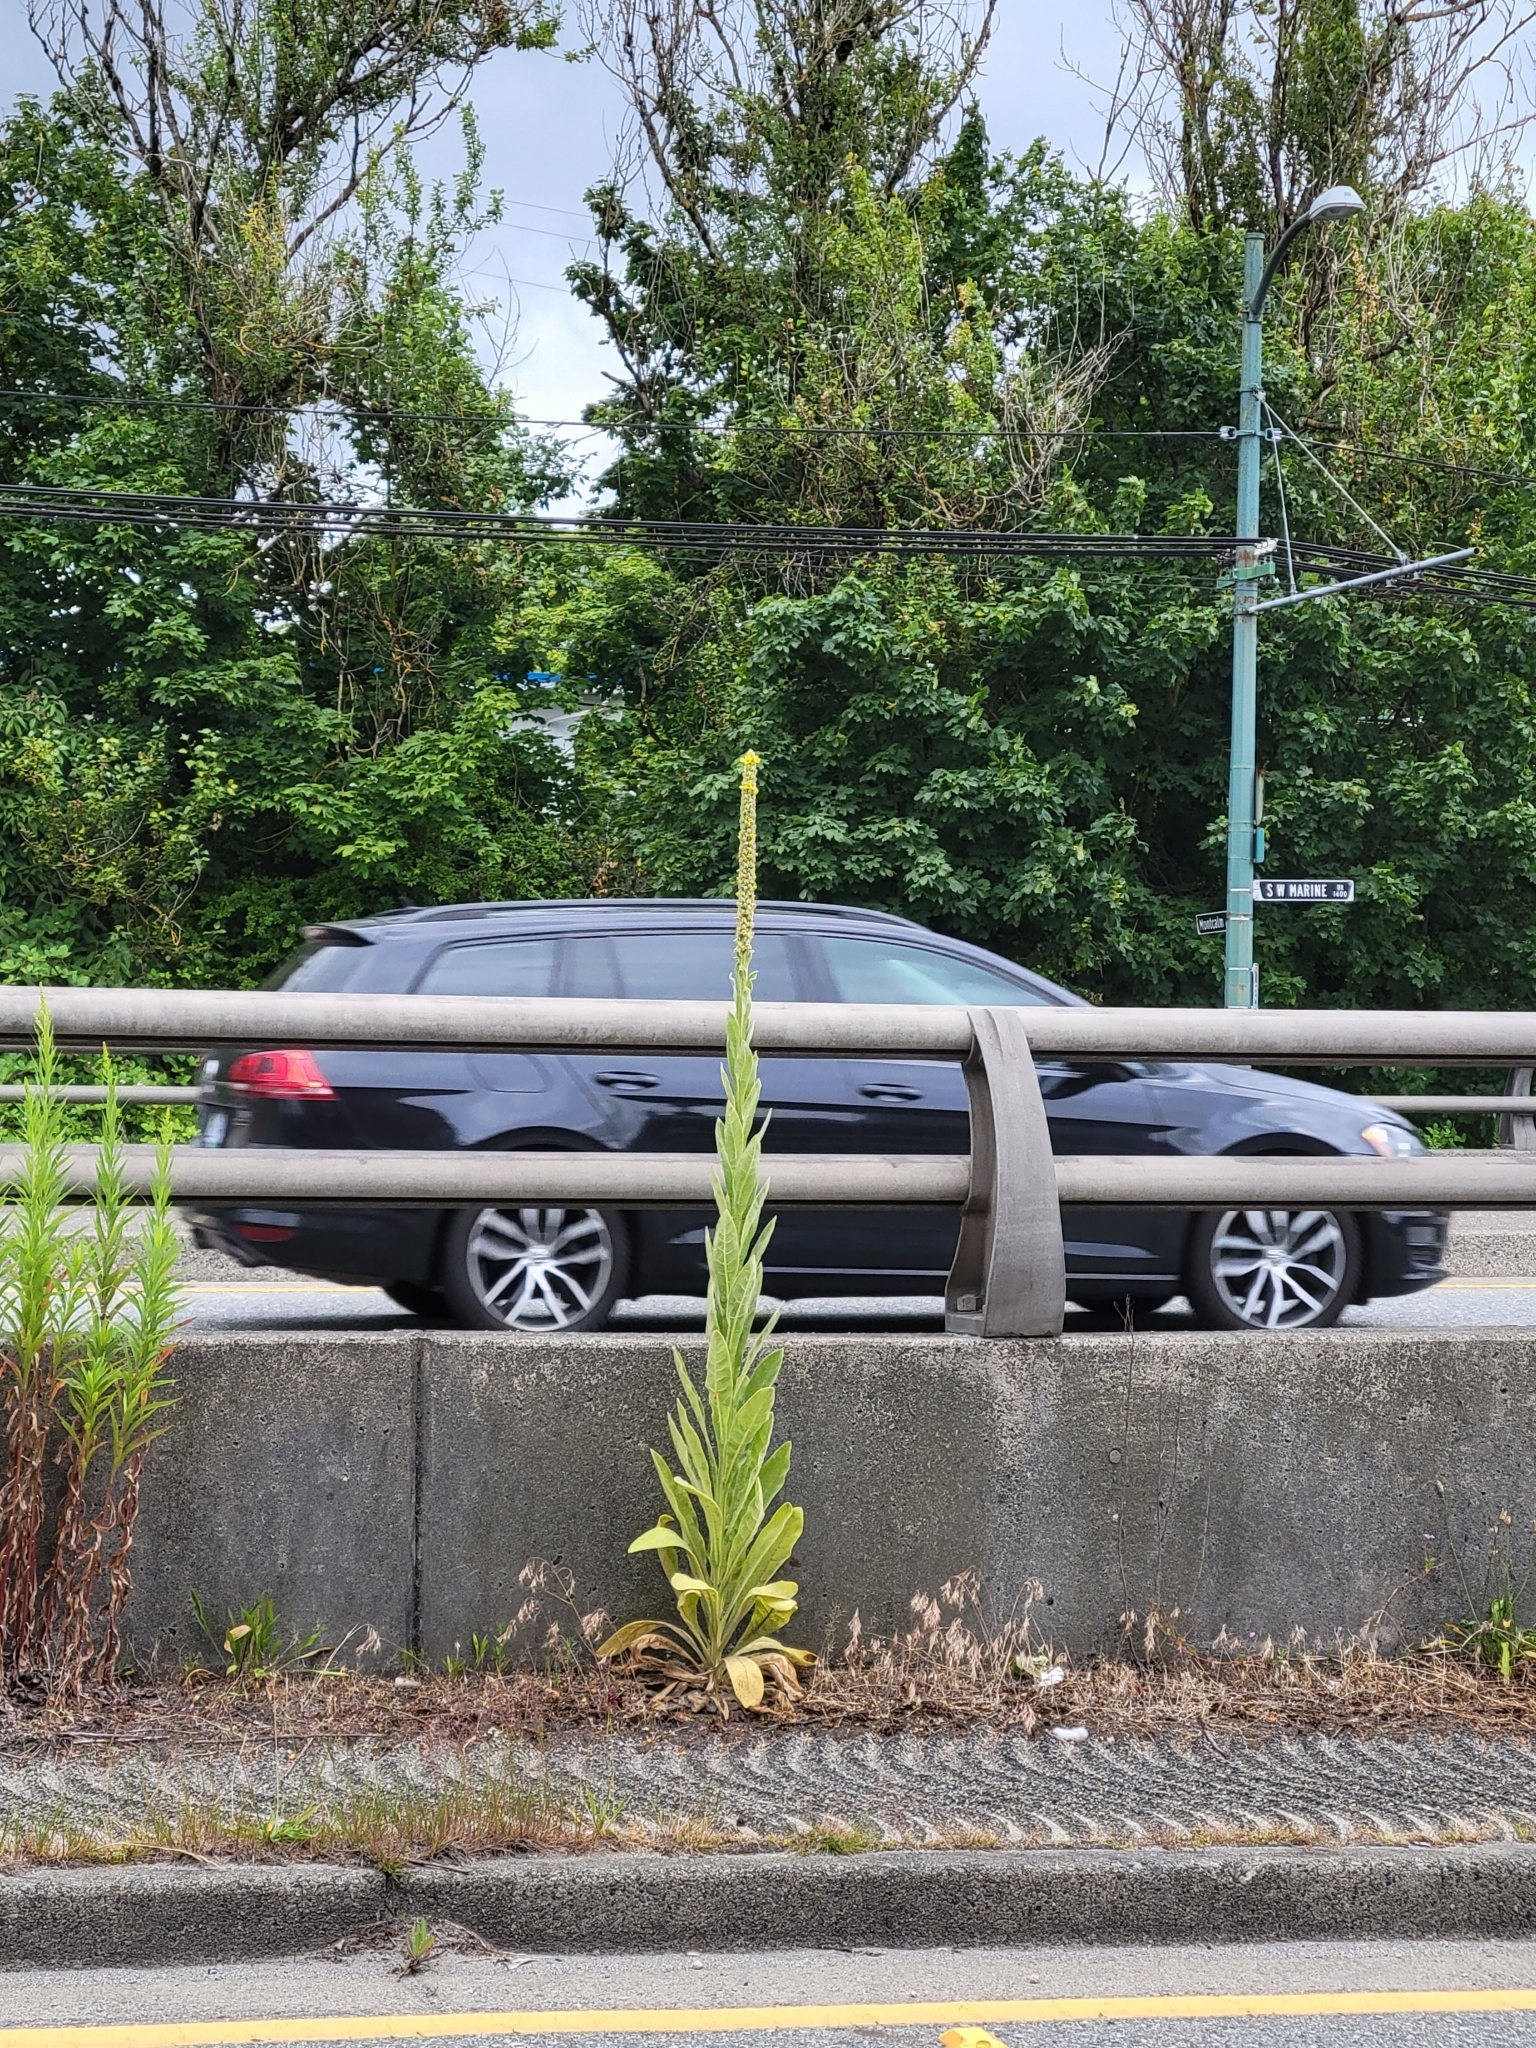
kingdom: Plantae
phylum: Tracheophyta
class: Magnoliopsida
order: Lamiales
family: Scrophulariaceae
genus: Verbascum
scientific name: Verbascum thapsus
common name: Common mullein
